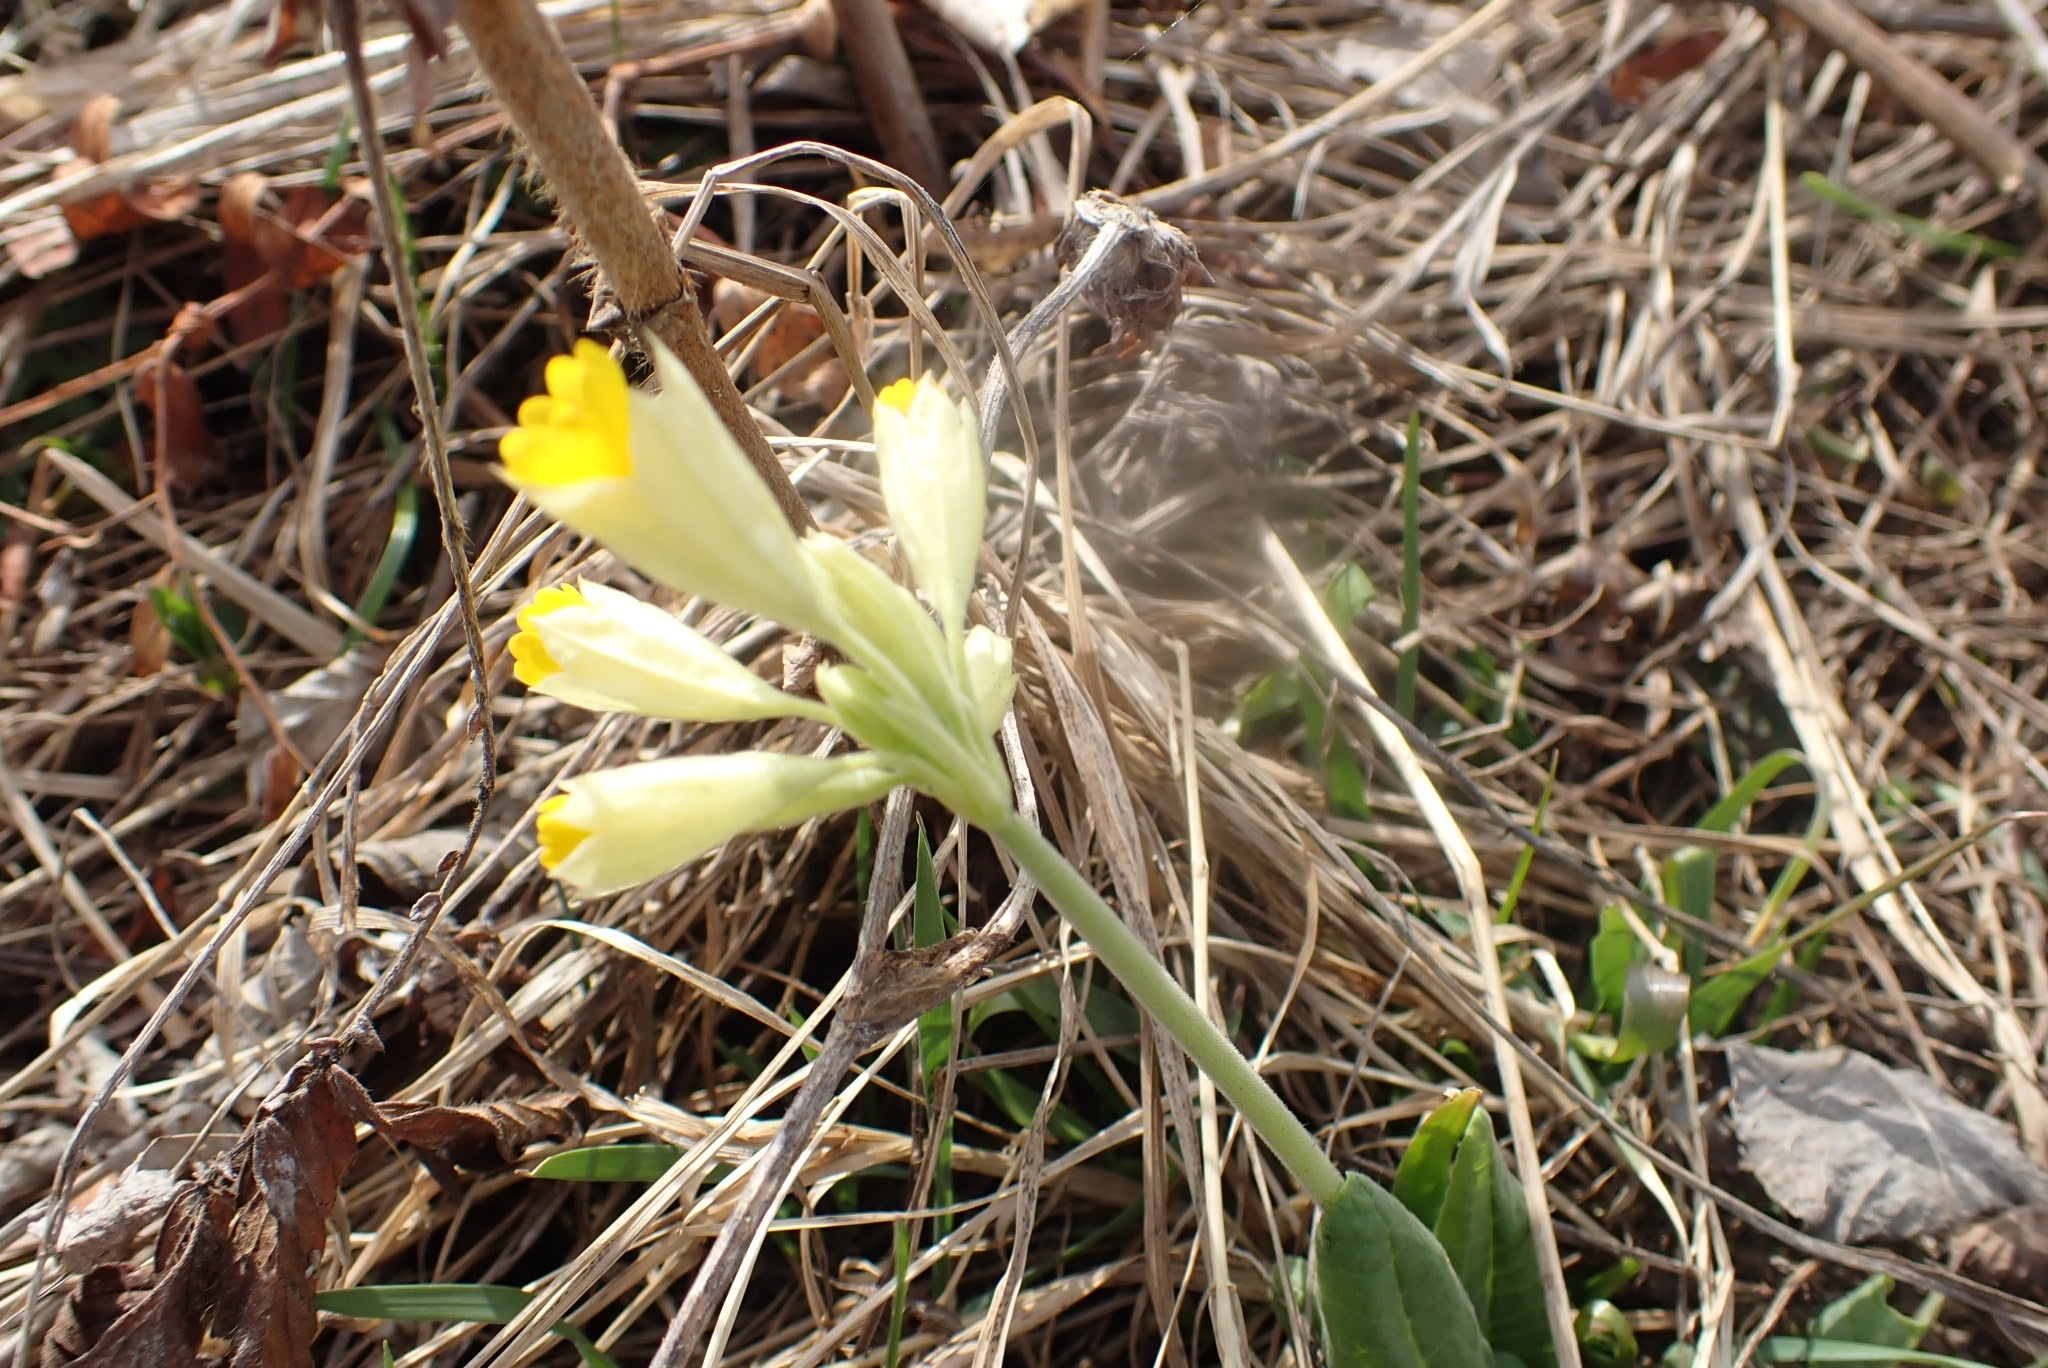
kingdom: Plantae
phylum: Tracheophyta
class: Magnoliopsida
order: Ericales
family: Primulaceae
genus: Primula
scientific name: Primula veris
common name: Cowslip
